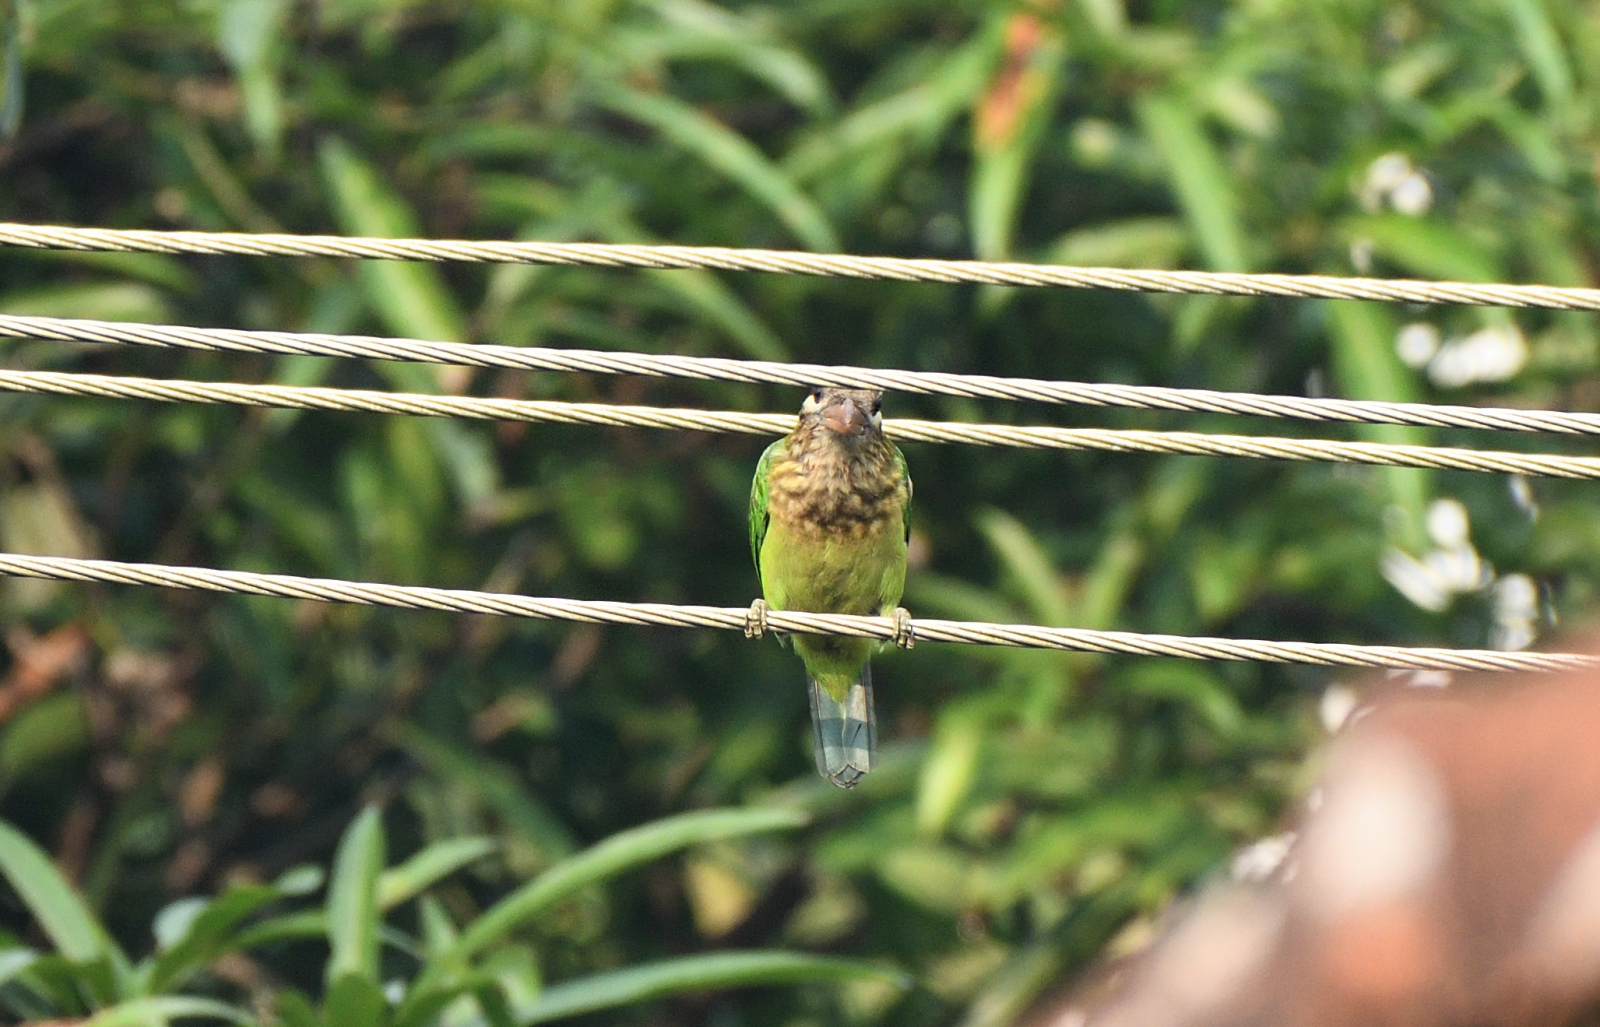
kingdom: Animalia
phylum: Chordata
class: Aves
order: Piciformes
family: Megalaimidae
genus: Psilopogon
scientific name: Psilopogon viridis
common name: White-cheeked barbet
